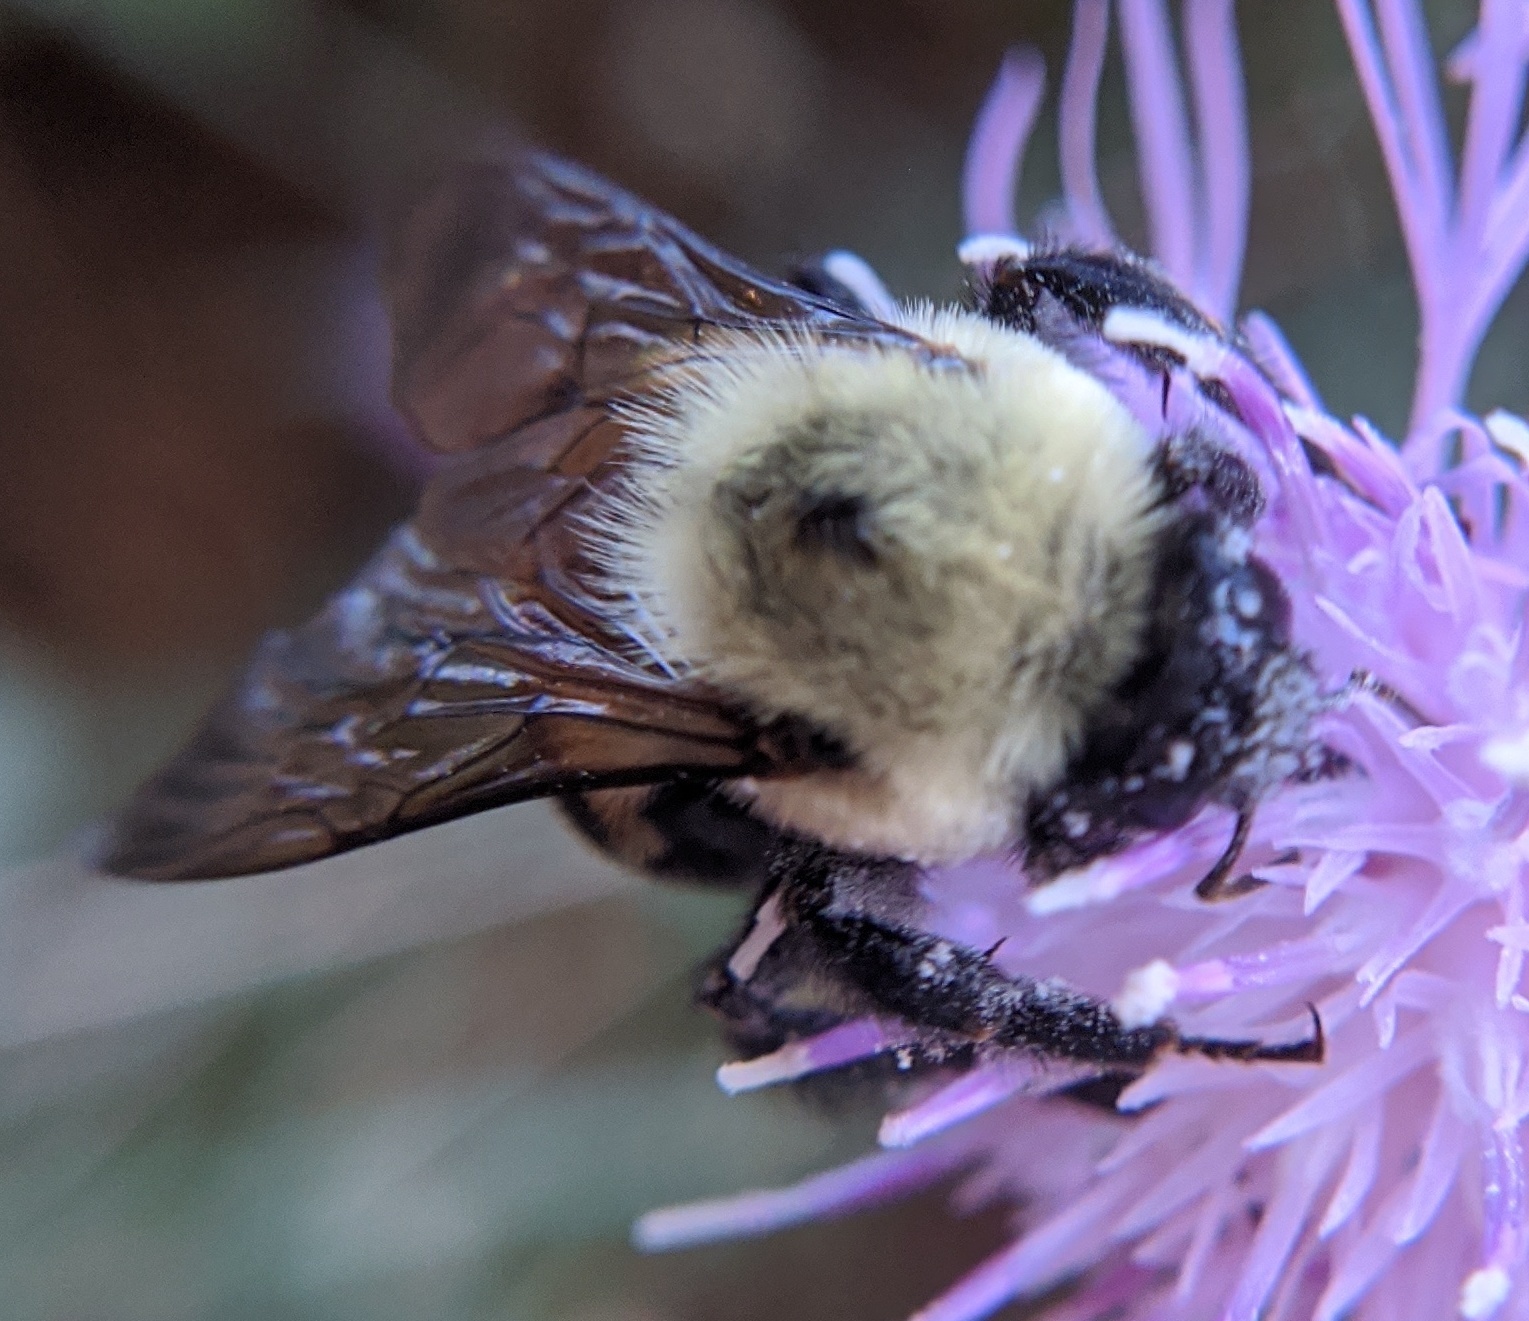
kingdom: Animalia
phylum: Arthropoda
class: Insecta
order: Hymenoptera
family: Apidae
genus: Bombus
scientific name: Bombus griseocollis
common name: Brown-belted bumble bee
